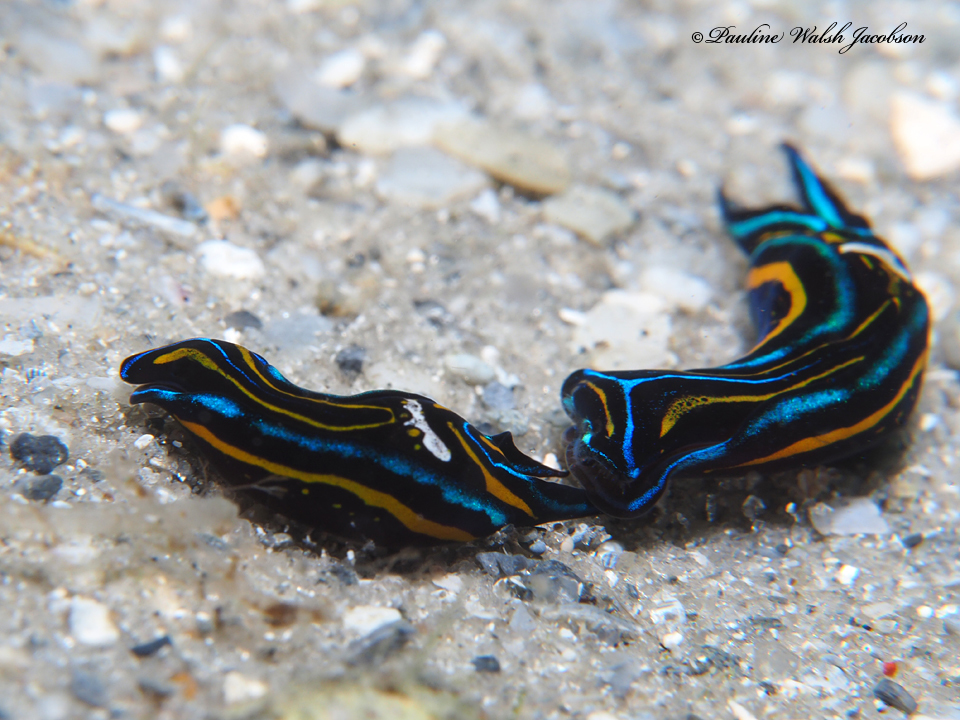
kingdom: Animalia
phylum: Mollusca
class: Gastropoda
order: Cephalaspidea
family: Aglajidae
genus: Chelidonura
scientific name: Chelidonura hirundinina
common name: Leech headshield slug
